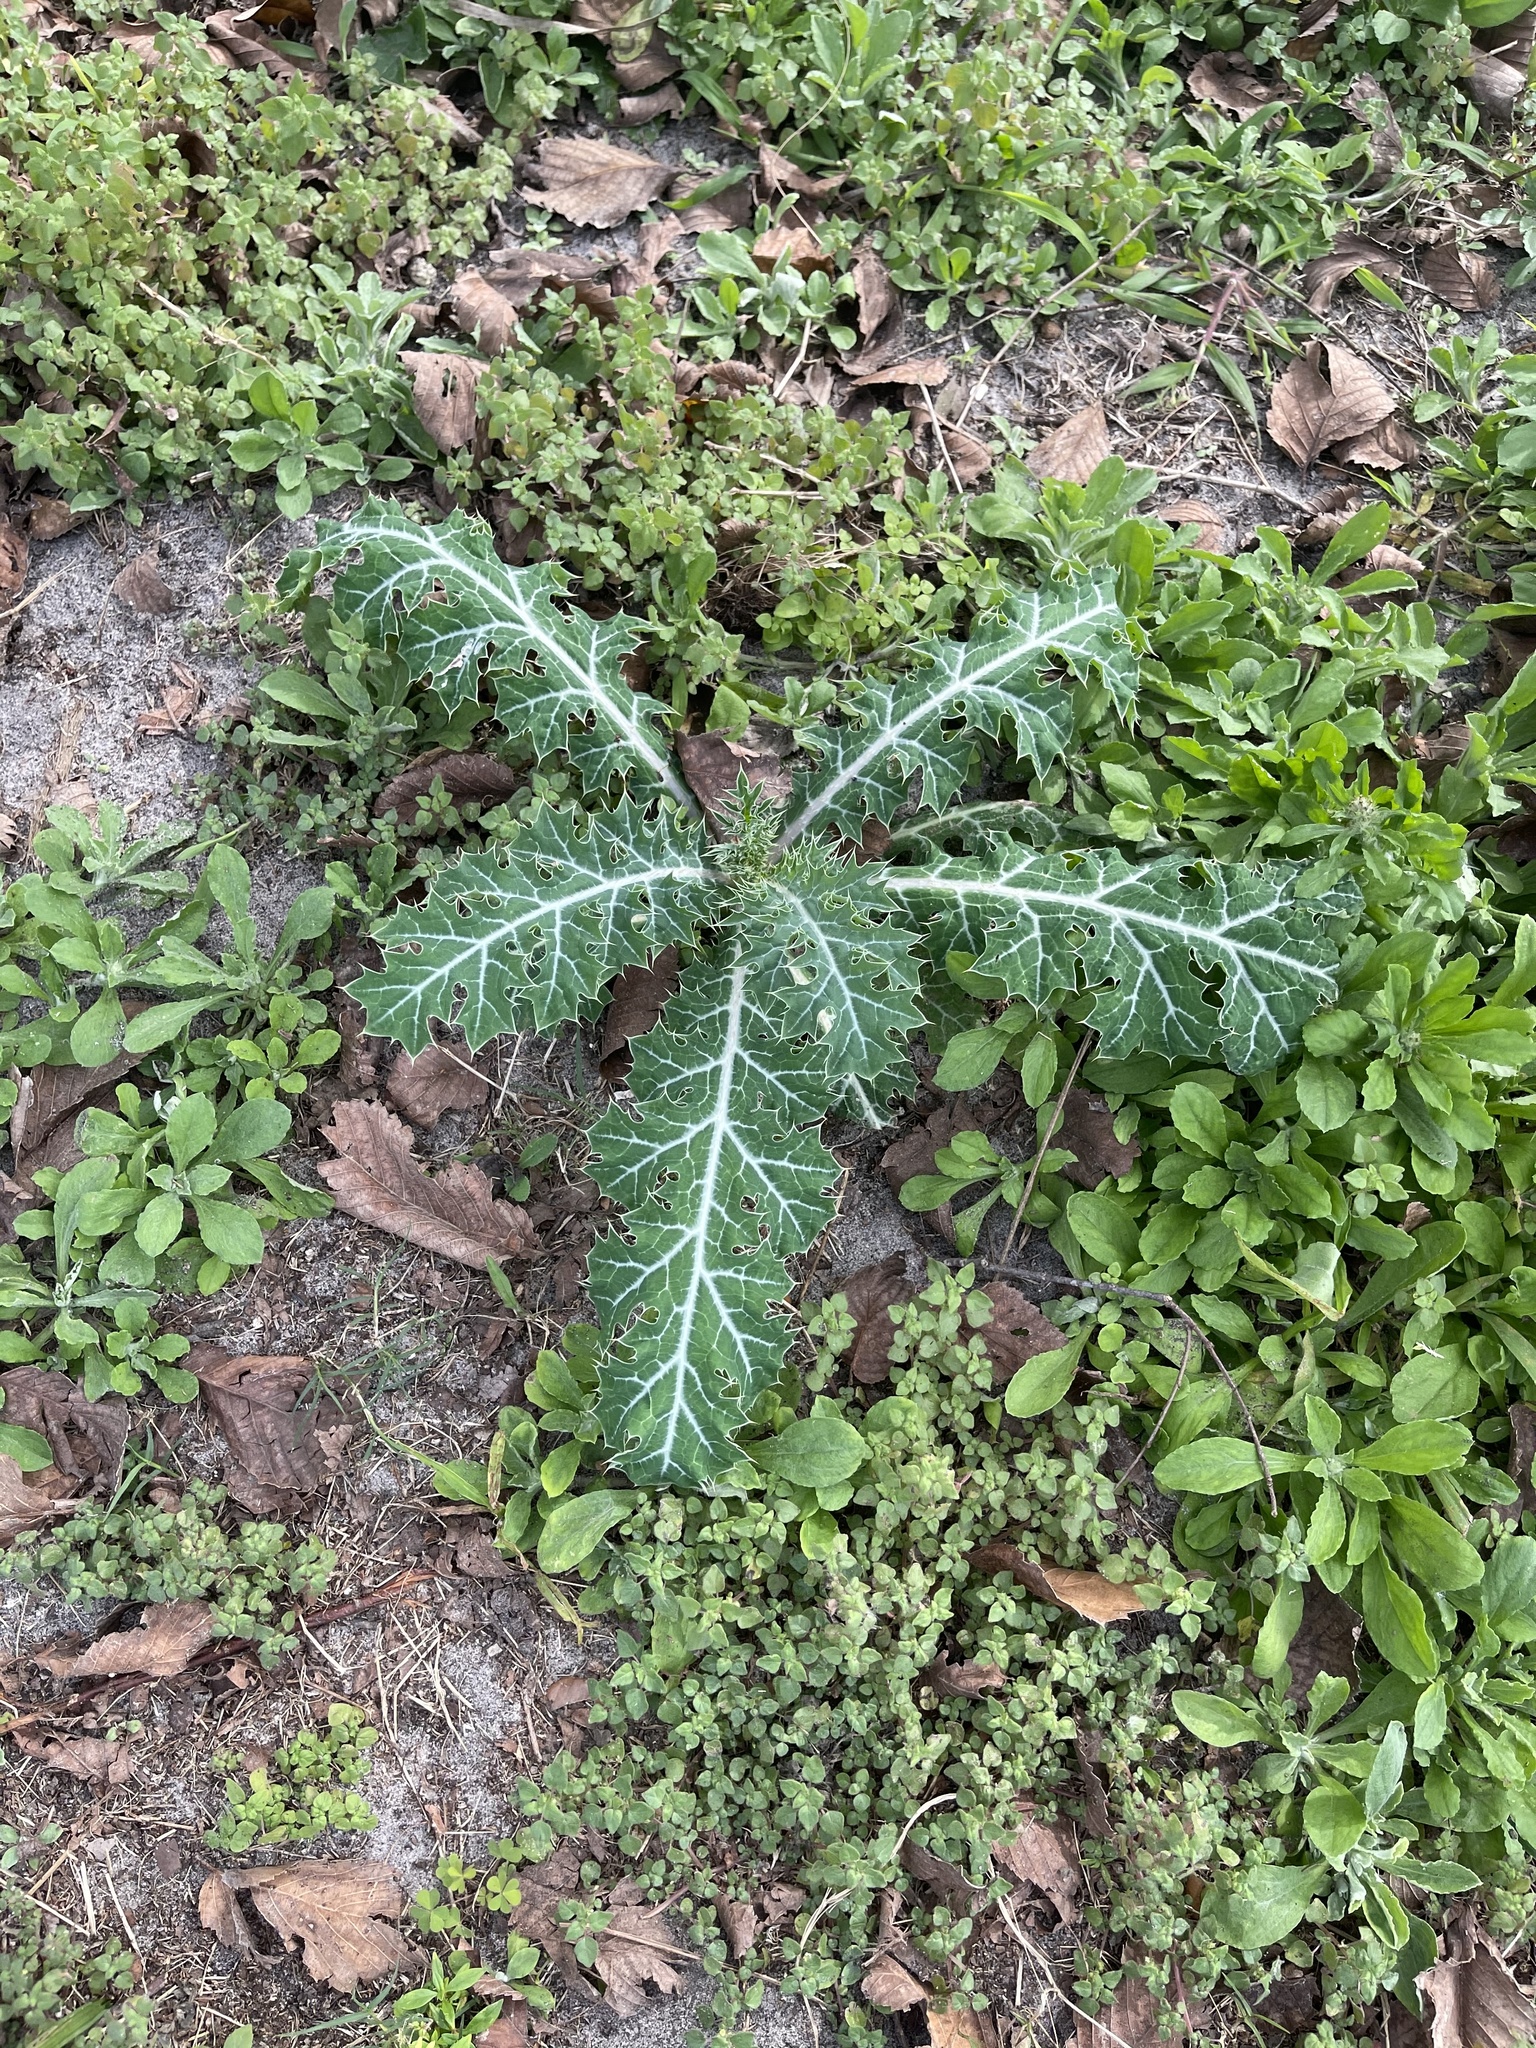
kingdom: Plantae
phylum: Tracheophyta
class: Magnoliopsida
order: Ranunculales
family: Papaveraceae
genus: Argemone
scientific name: Argemone mexicana
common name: Mexican poppy
